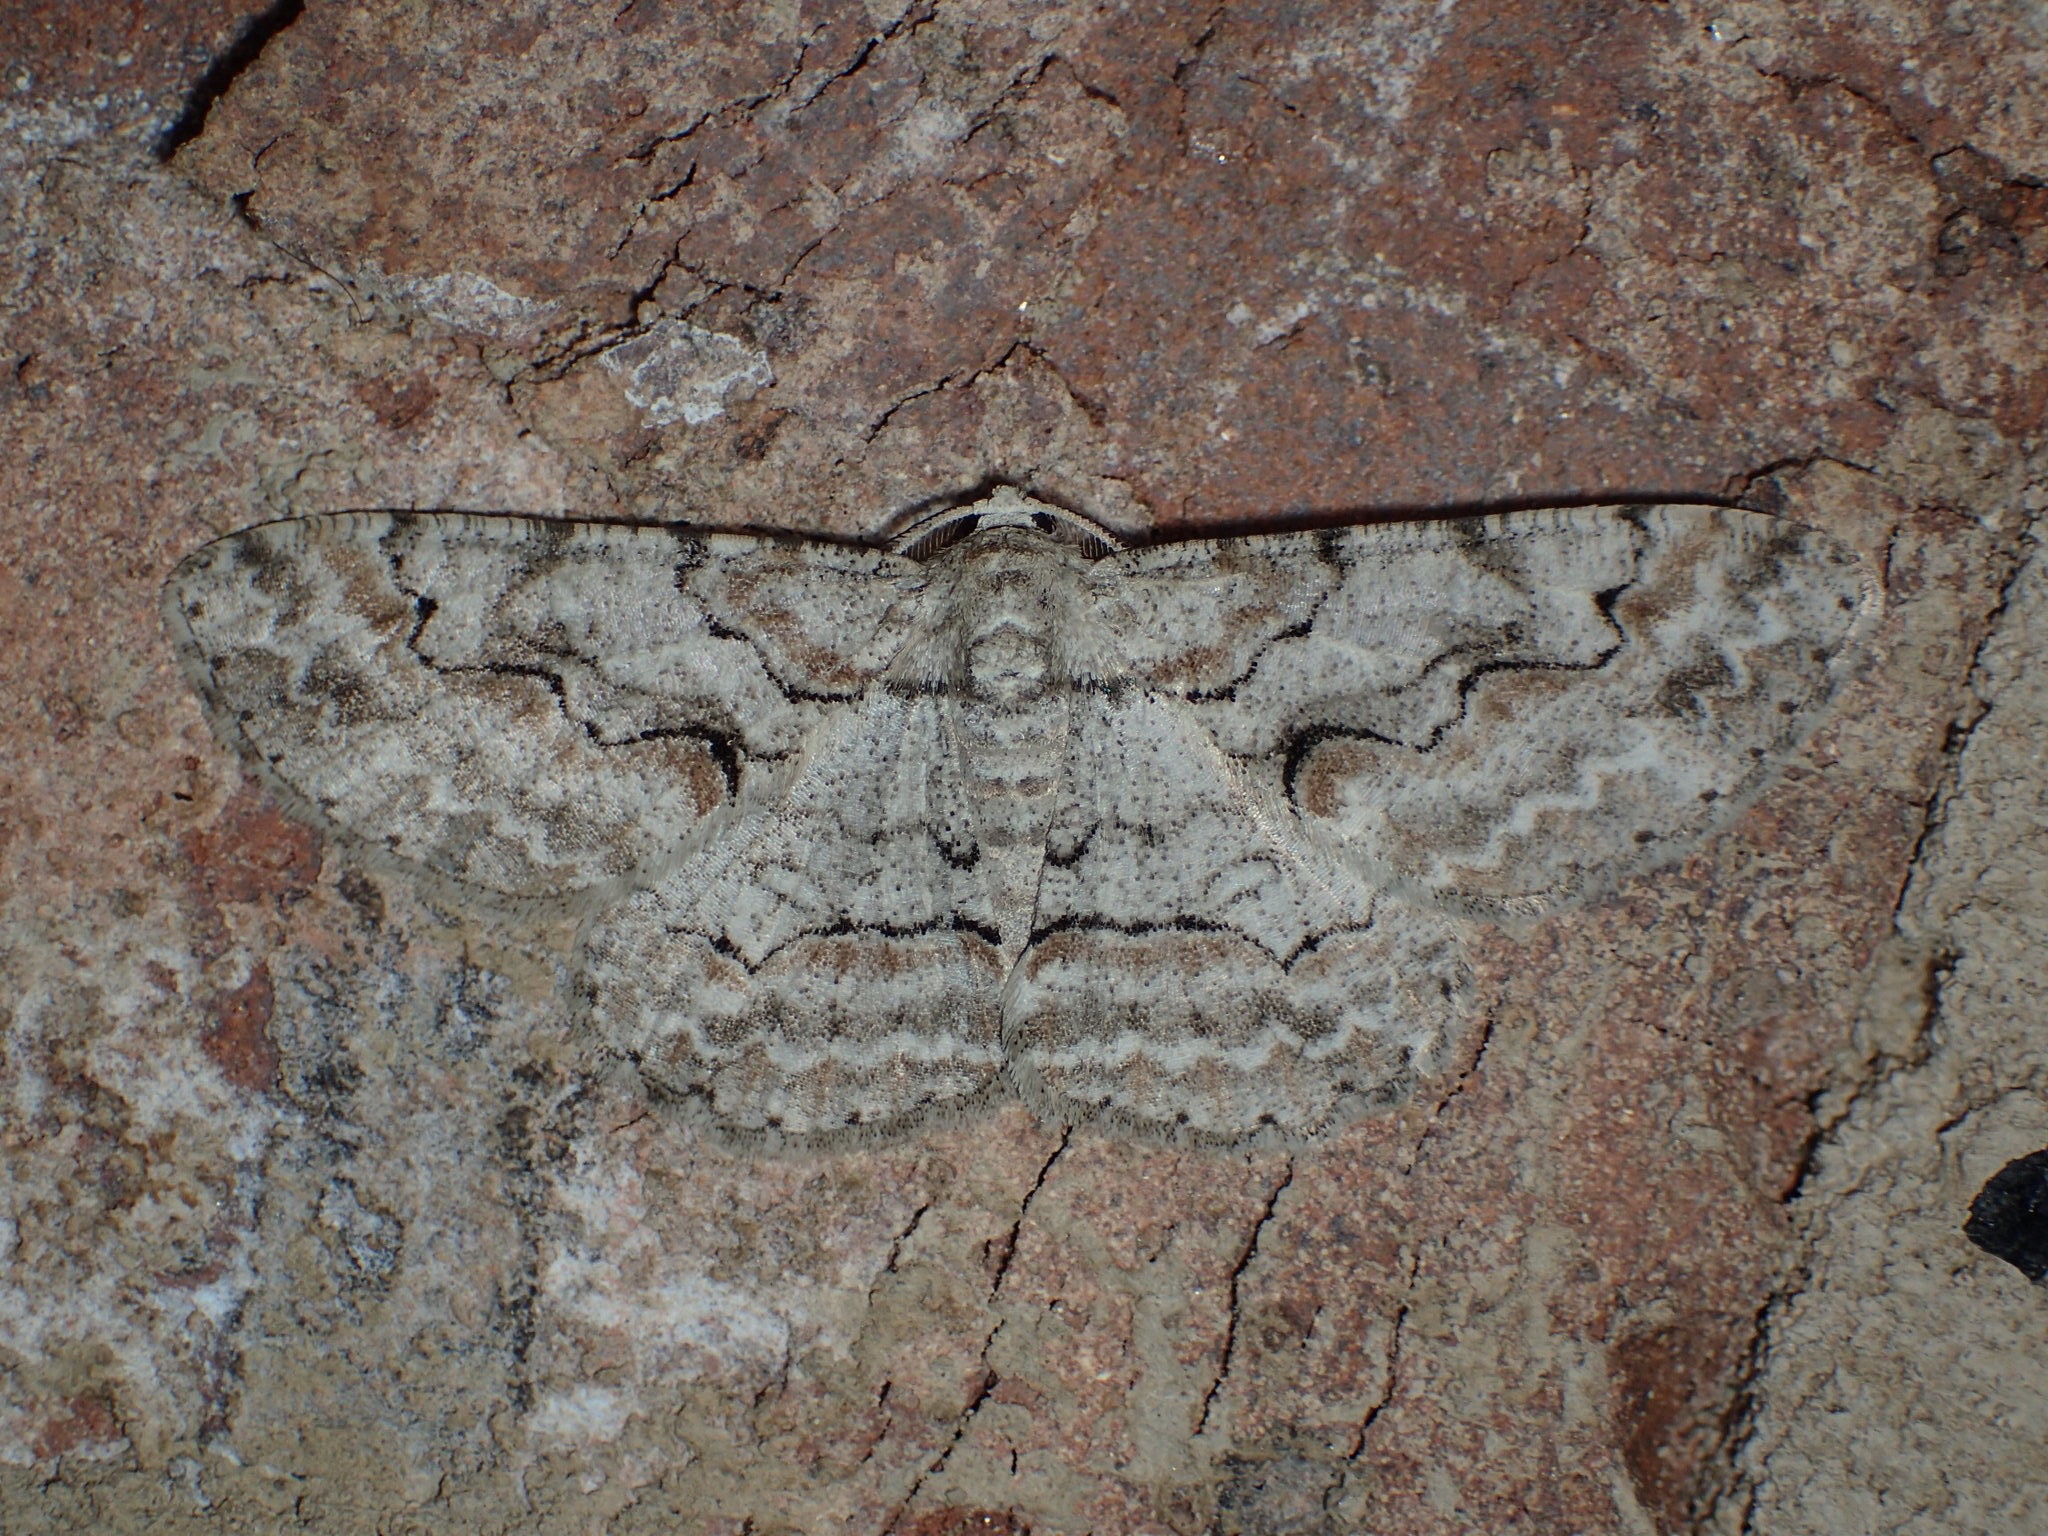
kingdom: Animalia
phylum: Arthropoda
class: Insecta
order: Lepidoptera
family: Geometridae
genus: Iridopsis
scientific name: Iridopsis defectaria
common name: Brown-shaded gray
